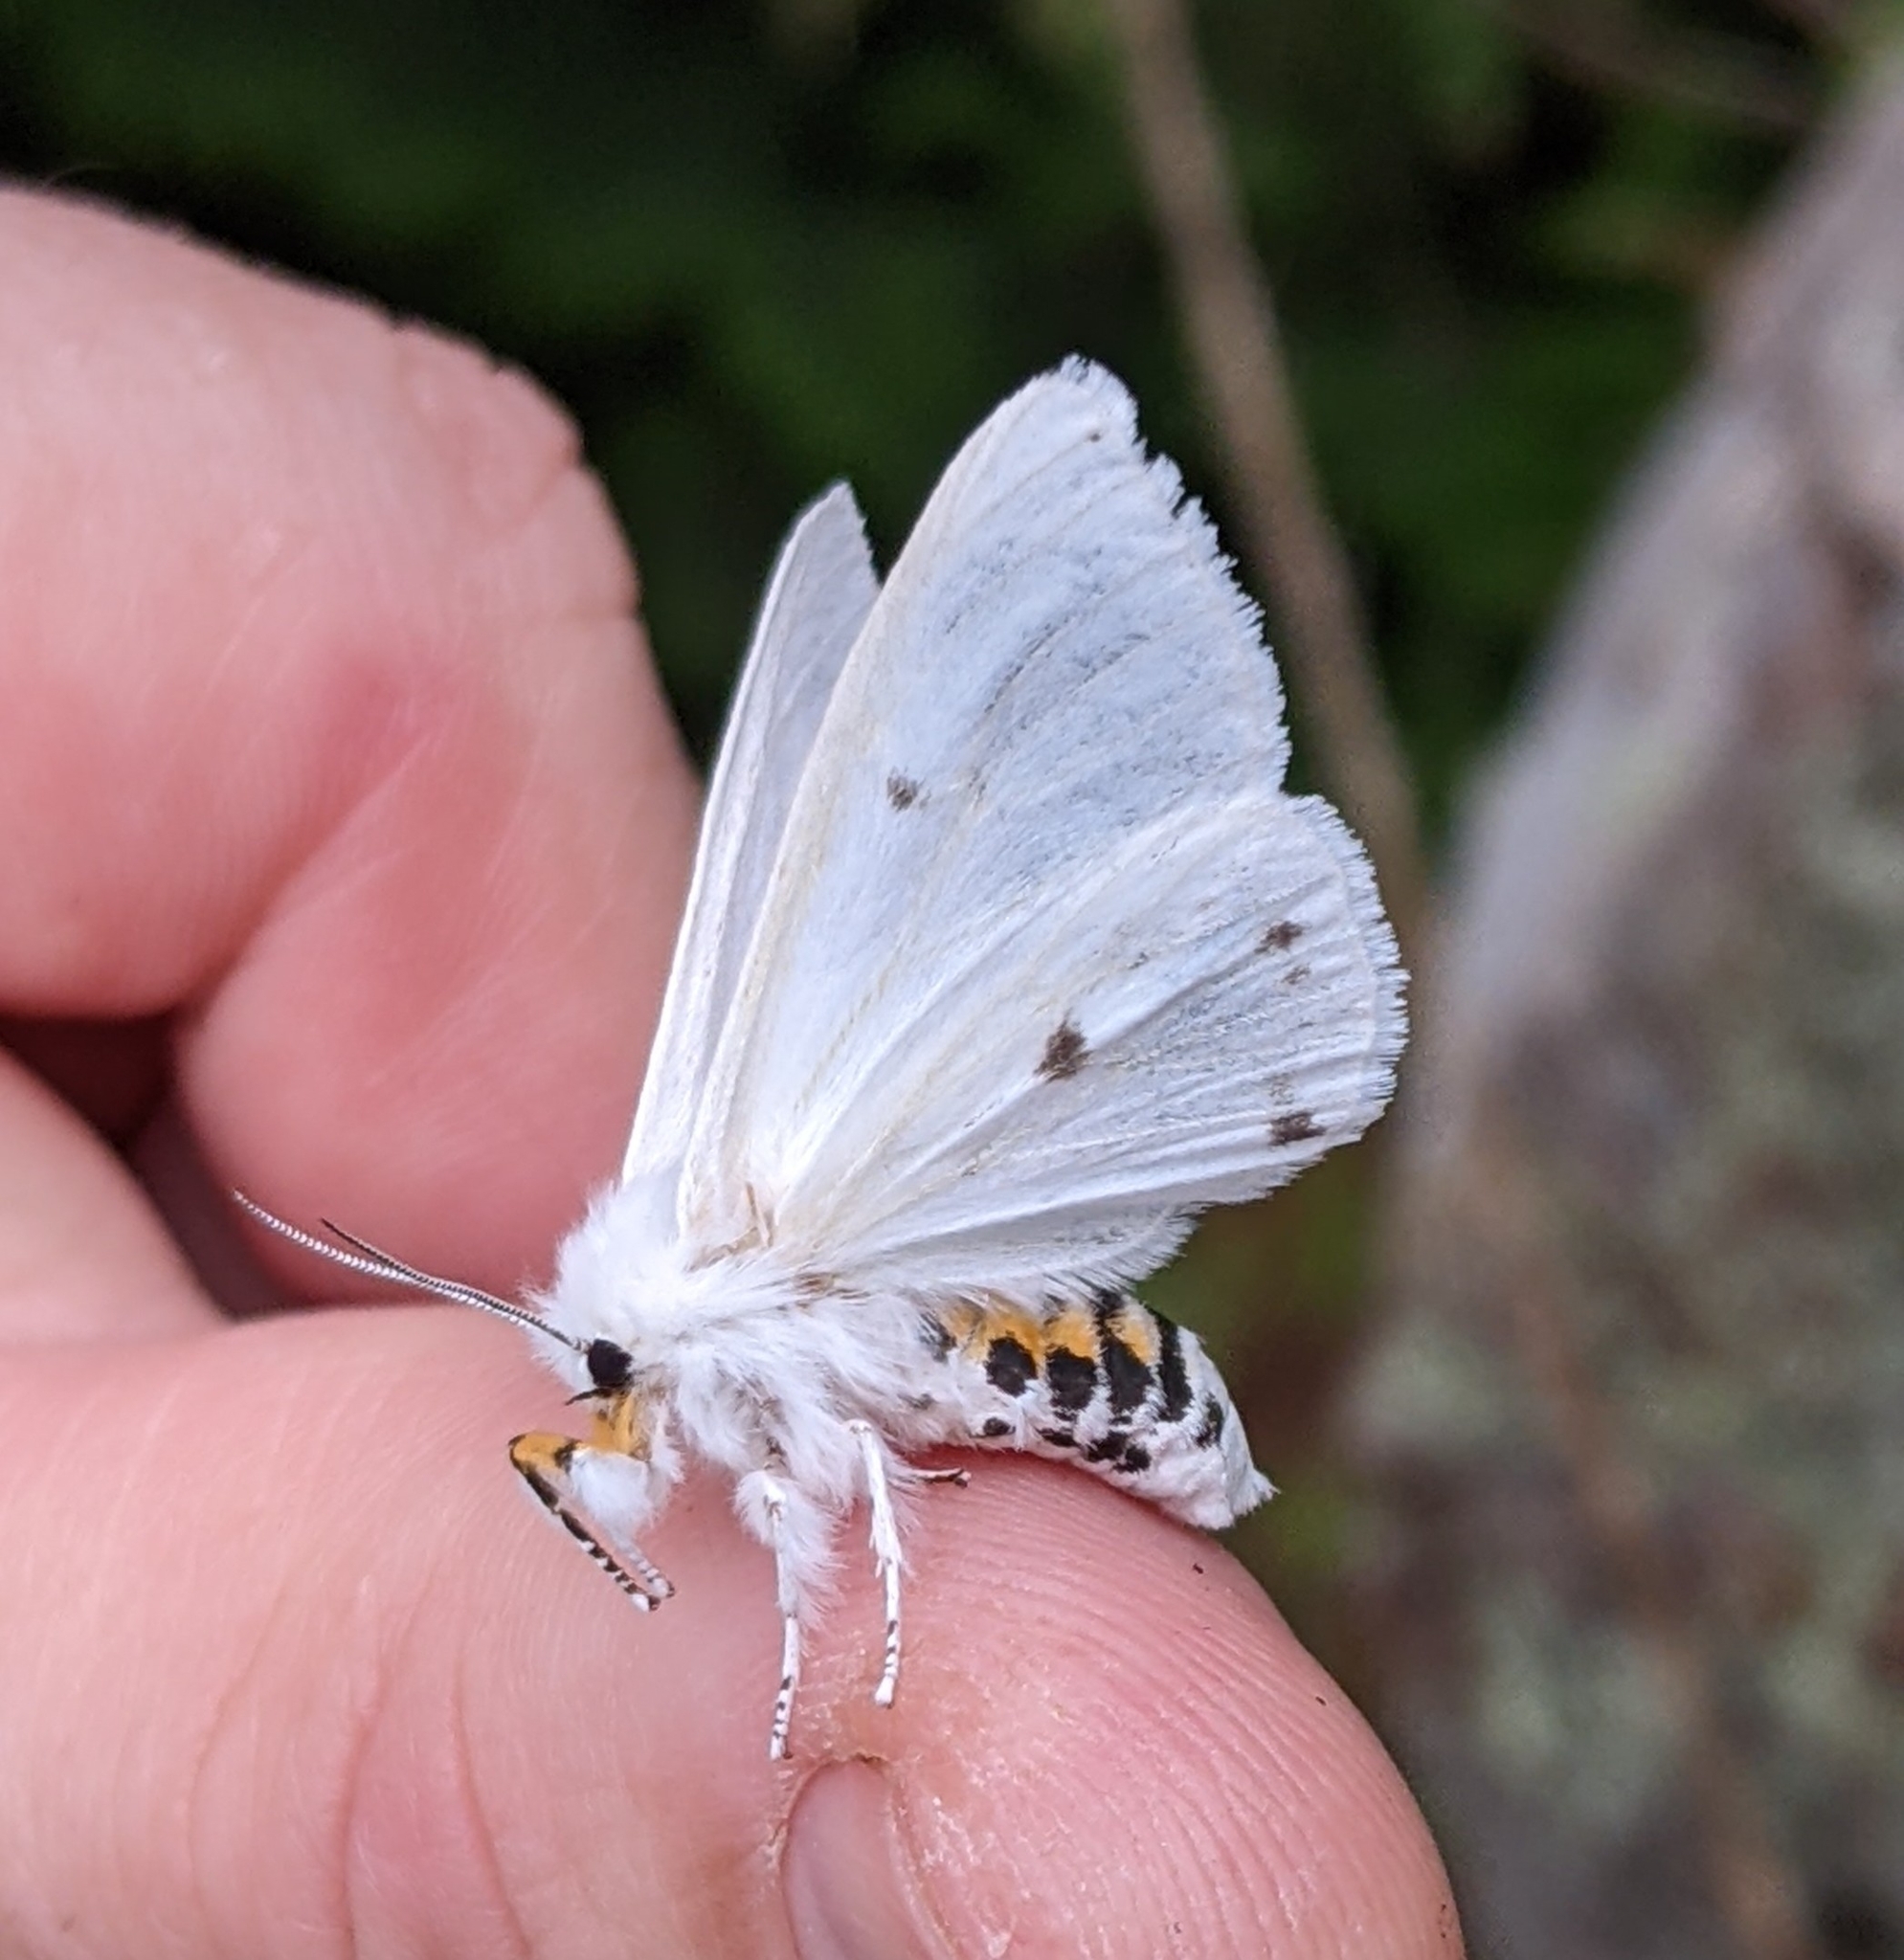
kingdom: Animalia
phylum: Arthropoda
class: Insecta
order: Lepidoptera
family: Erebidae
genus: Spilosoma
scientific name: Spilosoma virginica
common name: Virginia tiger moth
